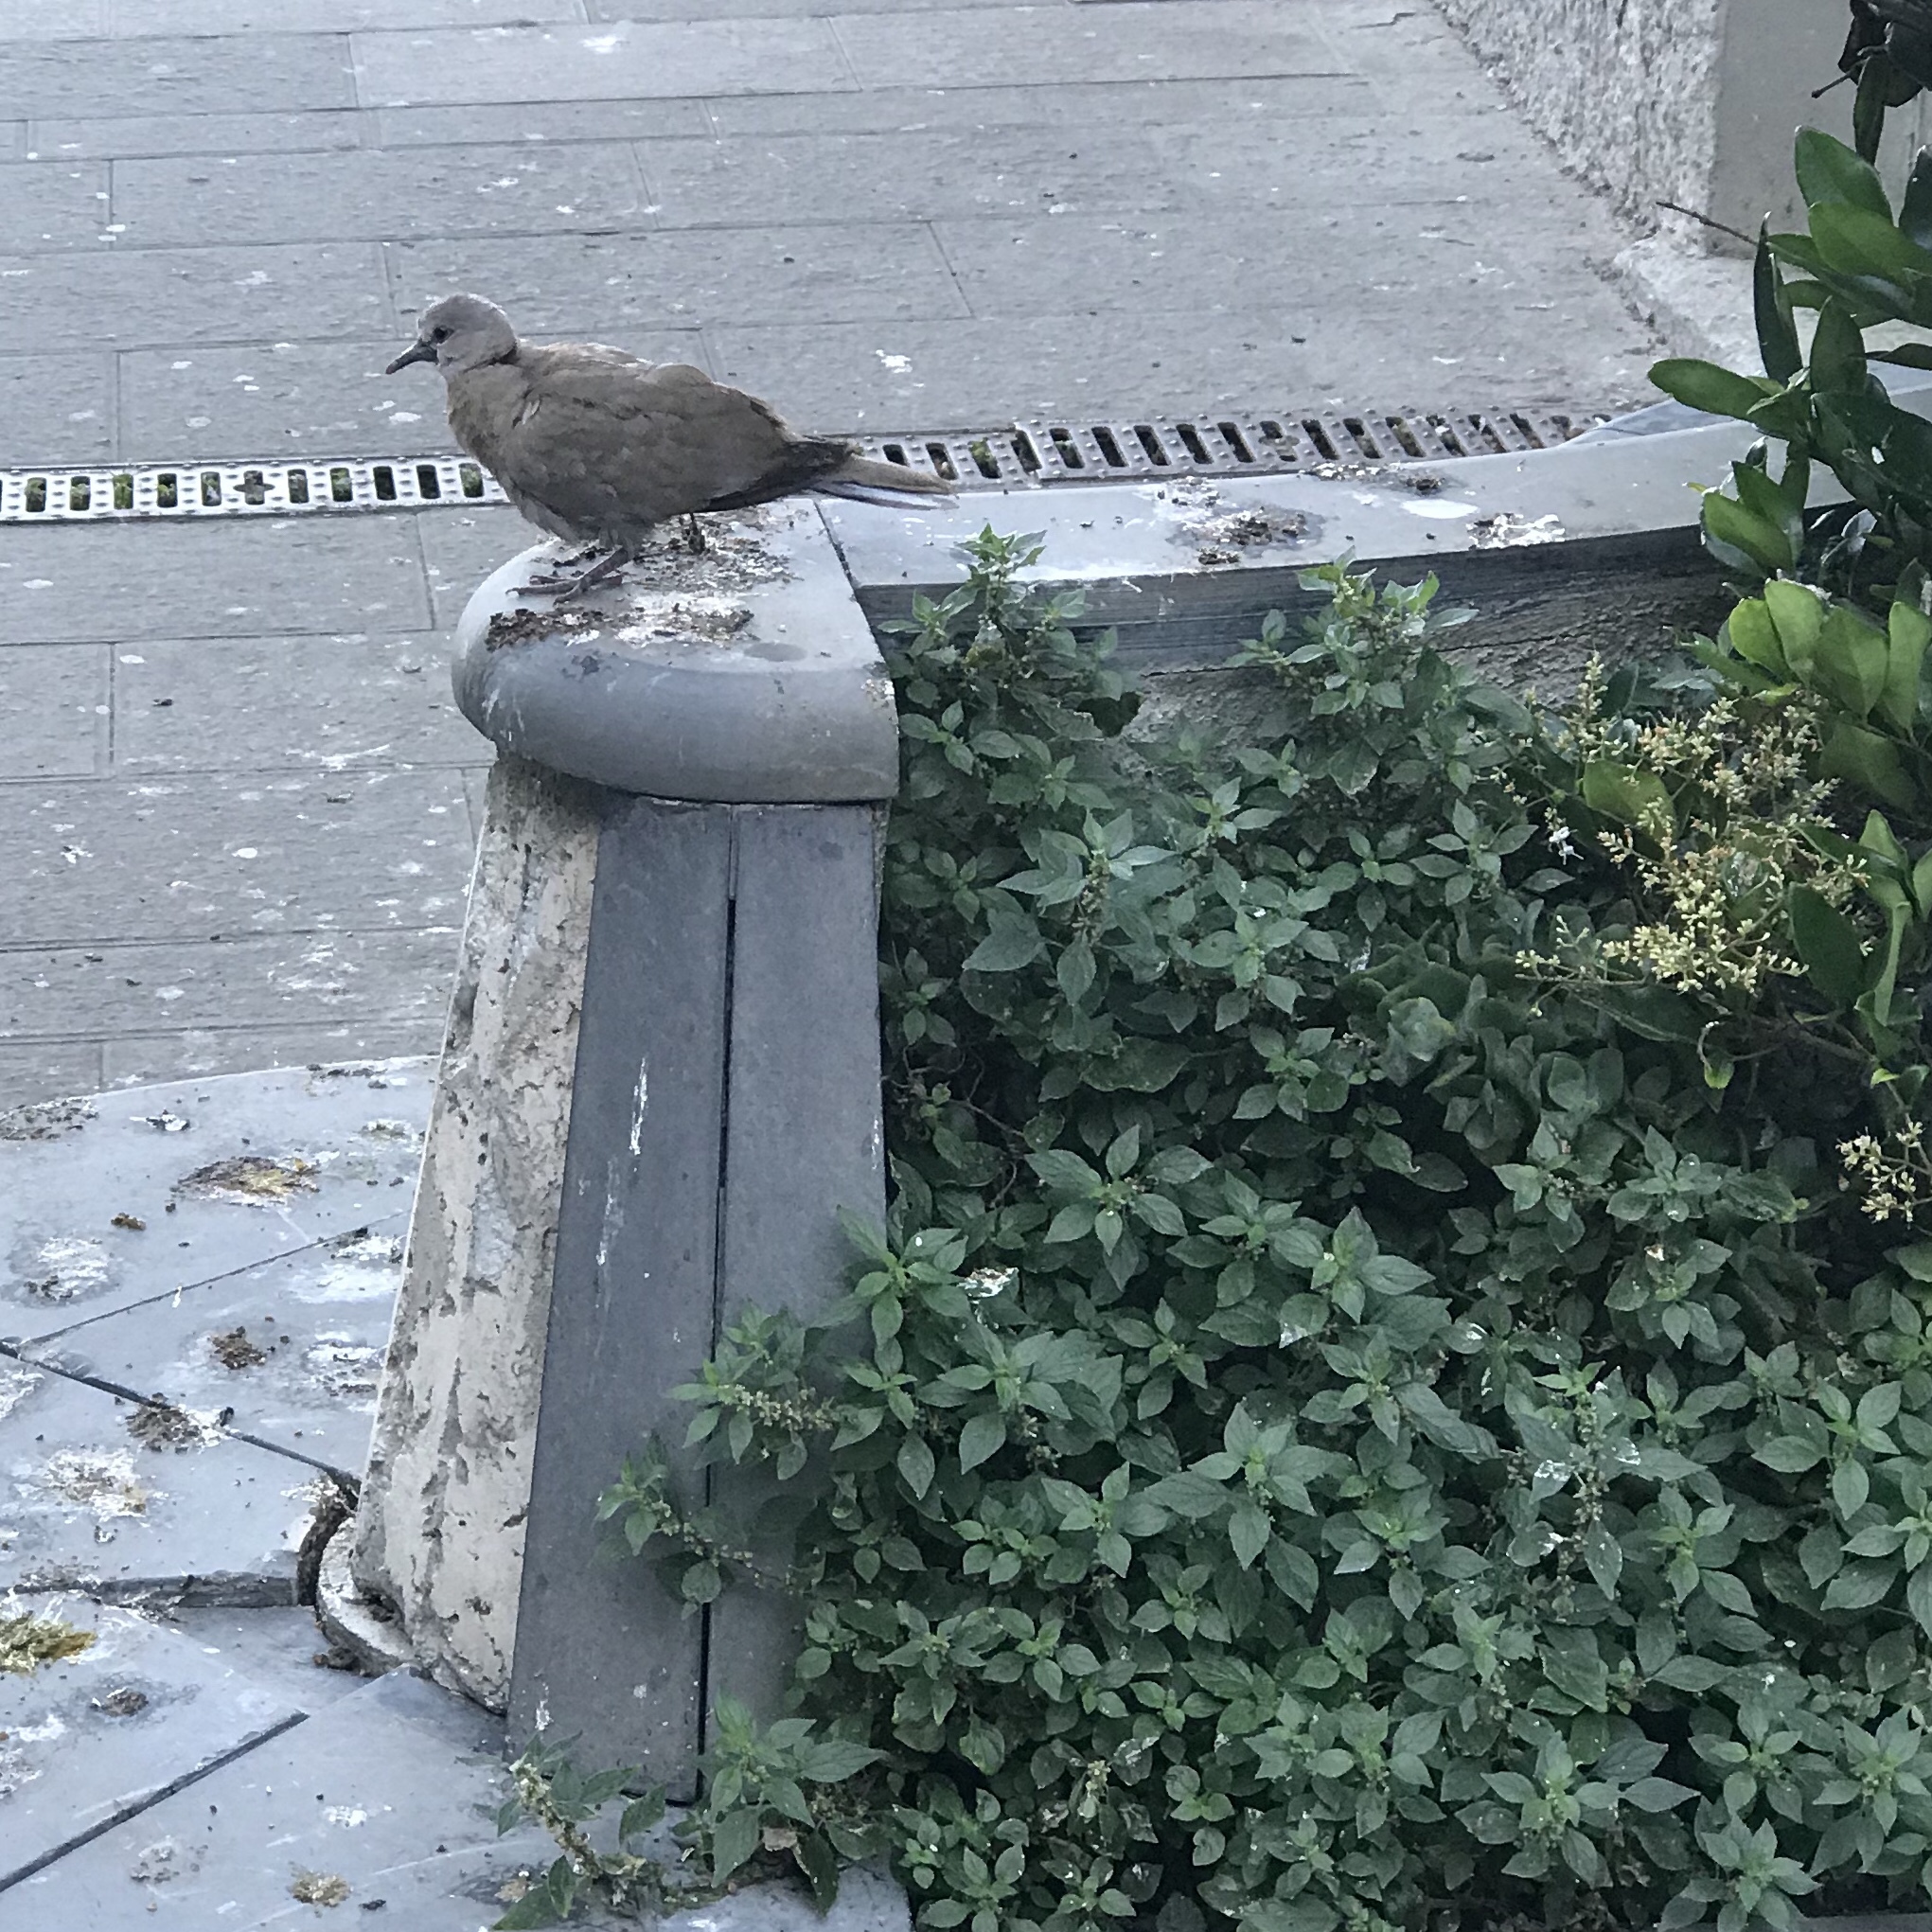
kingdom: Animalia
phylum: Chordata
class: Aves
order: Columbiformes
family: Columbidae
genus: Streptopelia
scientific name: Streptopelia decaocto
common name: Eurasian collared dove
